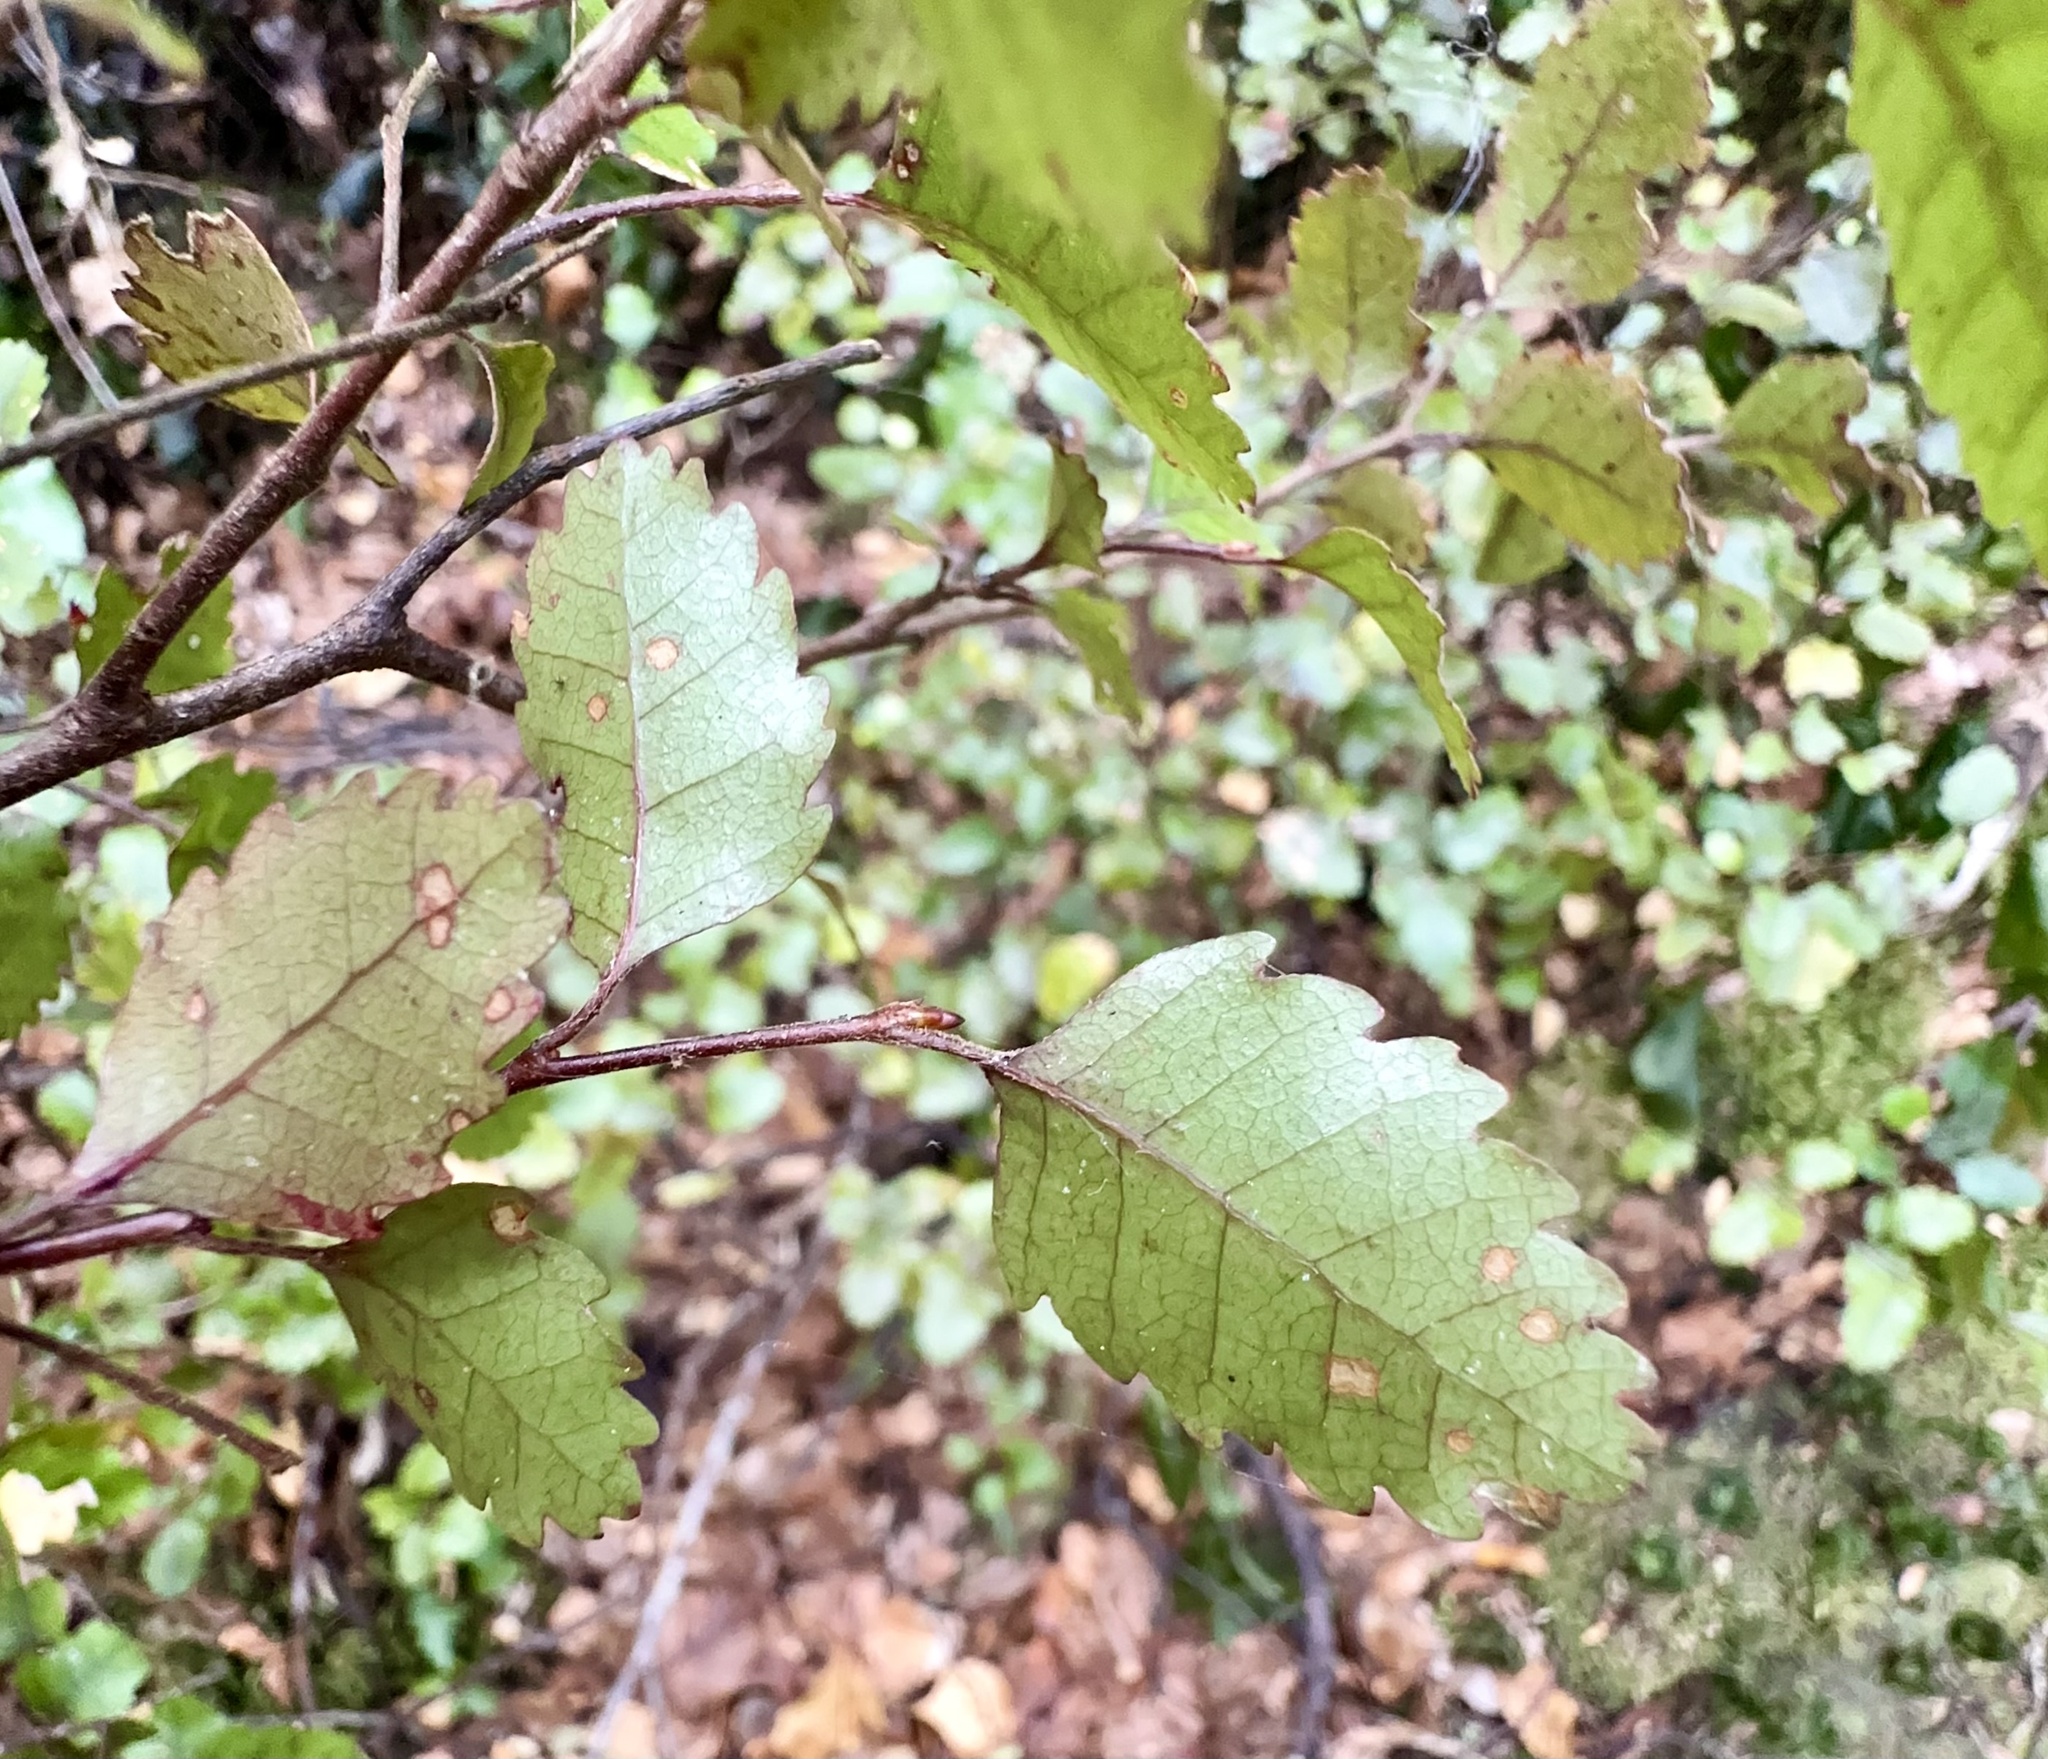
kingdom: Plantae
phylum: Tracheophyta
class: Magnoliopsida
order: Fagales
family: Nothofagaceae
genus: Nothofagus
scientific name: Nothofagus truncata
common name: Hard beech
